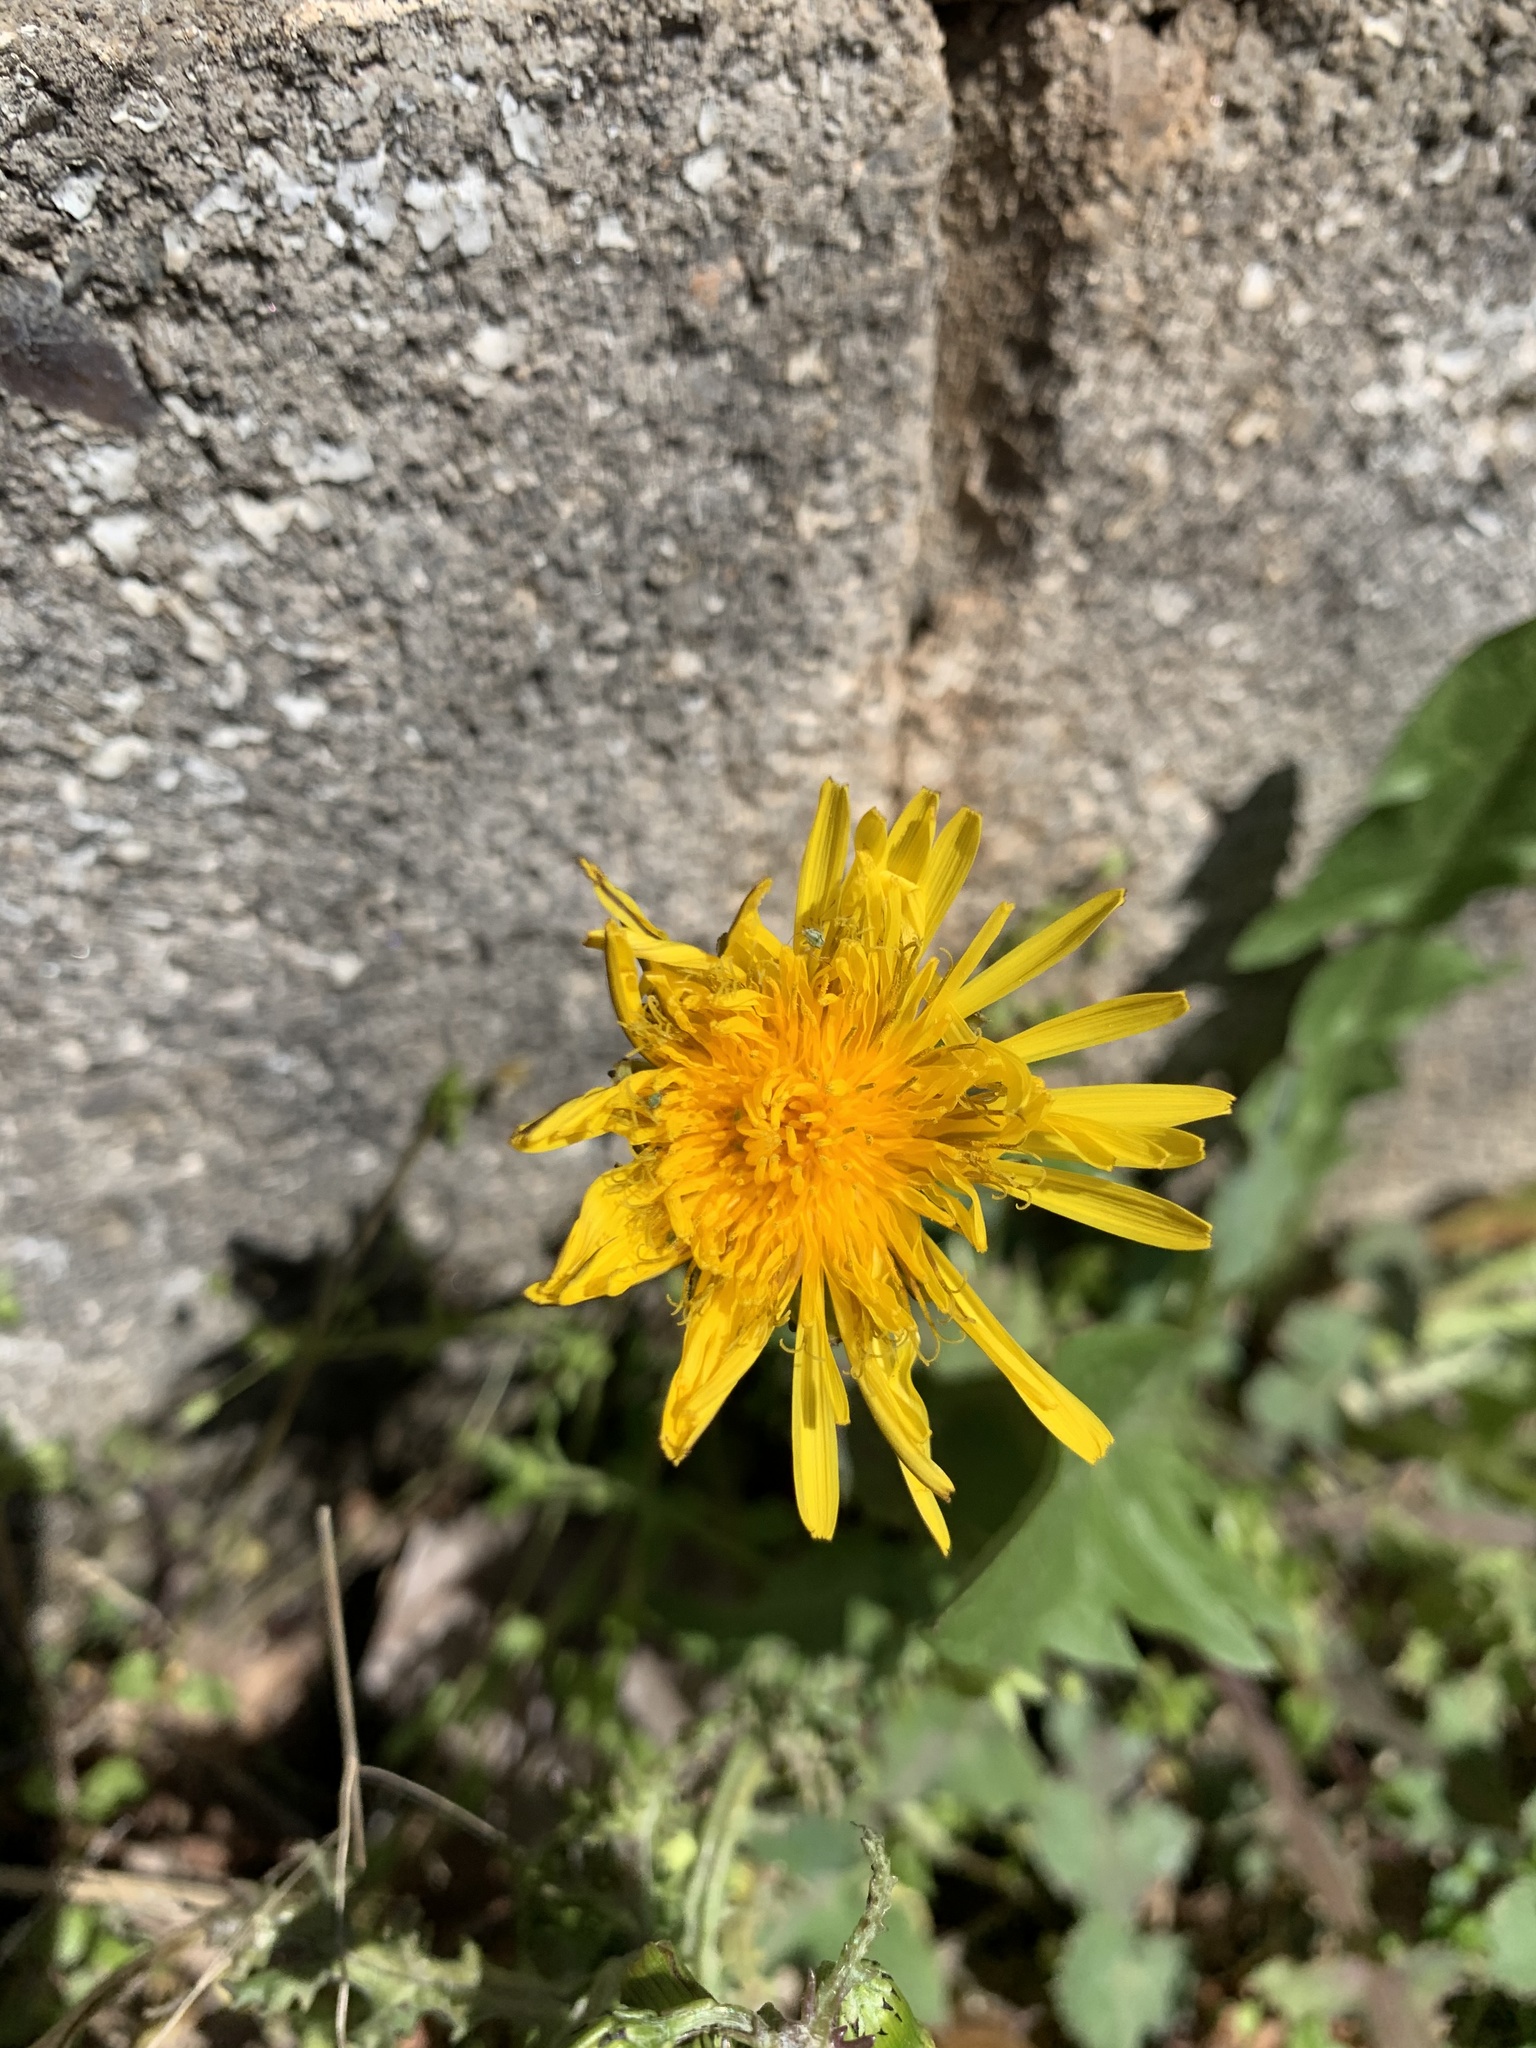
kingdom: Plantae
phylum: Tracheophyta
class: Magnoliopsida
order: Asterales
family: Asteraceae
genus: Taraxacum
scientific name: Taraxacum officinale
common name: Common dandelion
